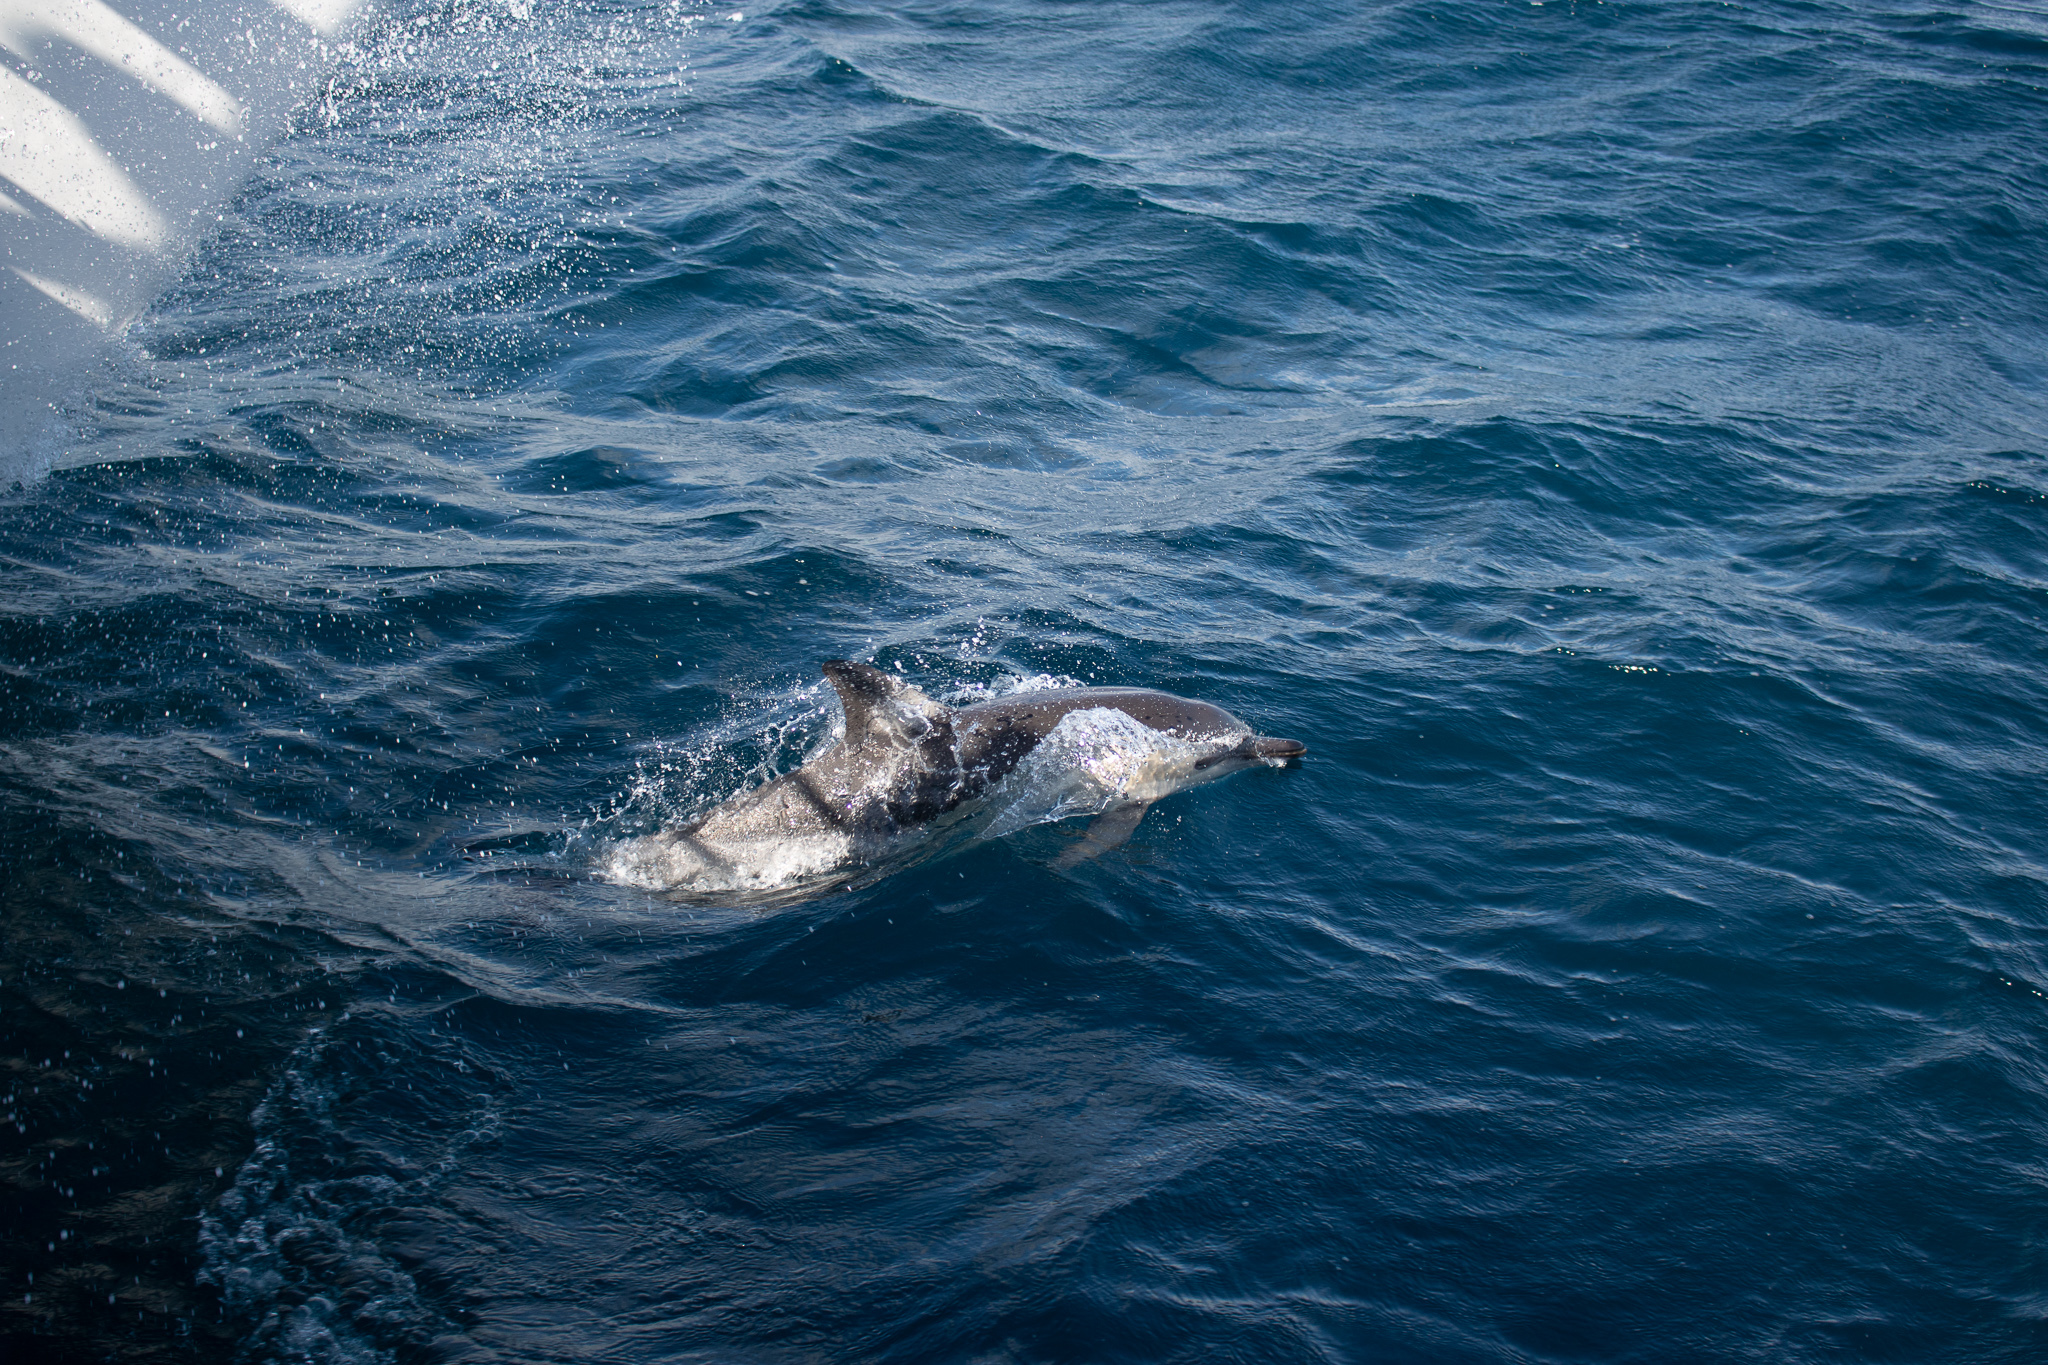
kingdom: Animalia
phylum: Chordata
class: Mammalia
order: Cetacea
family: Delphinidae
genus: Delphinus
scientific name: Delphinus delphis
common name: Common dolphin
